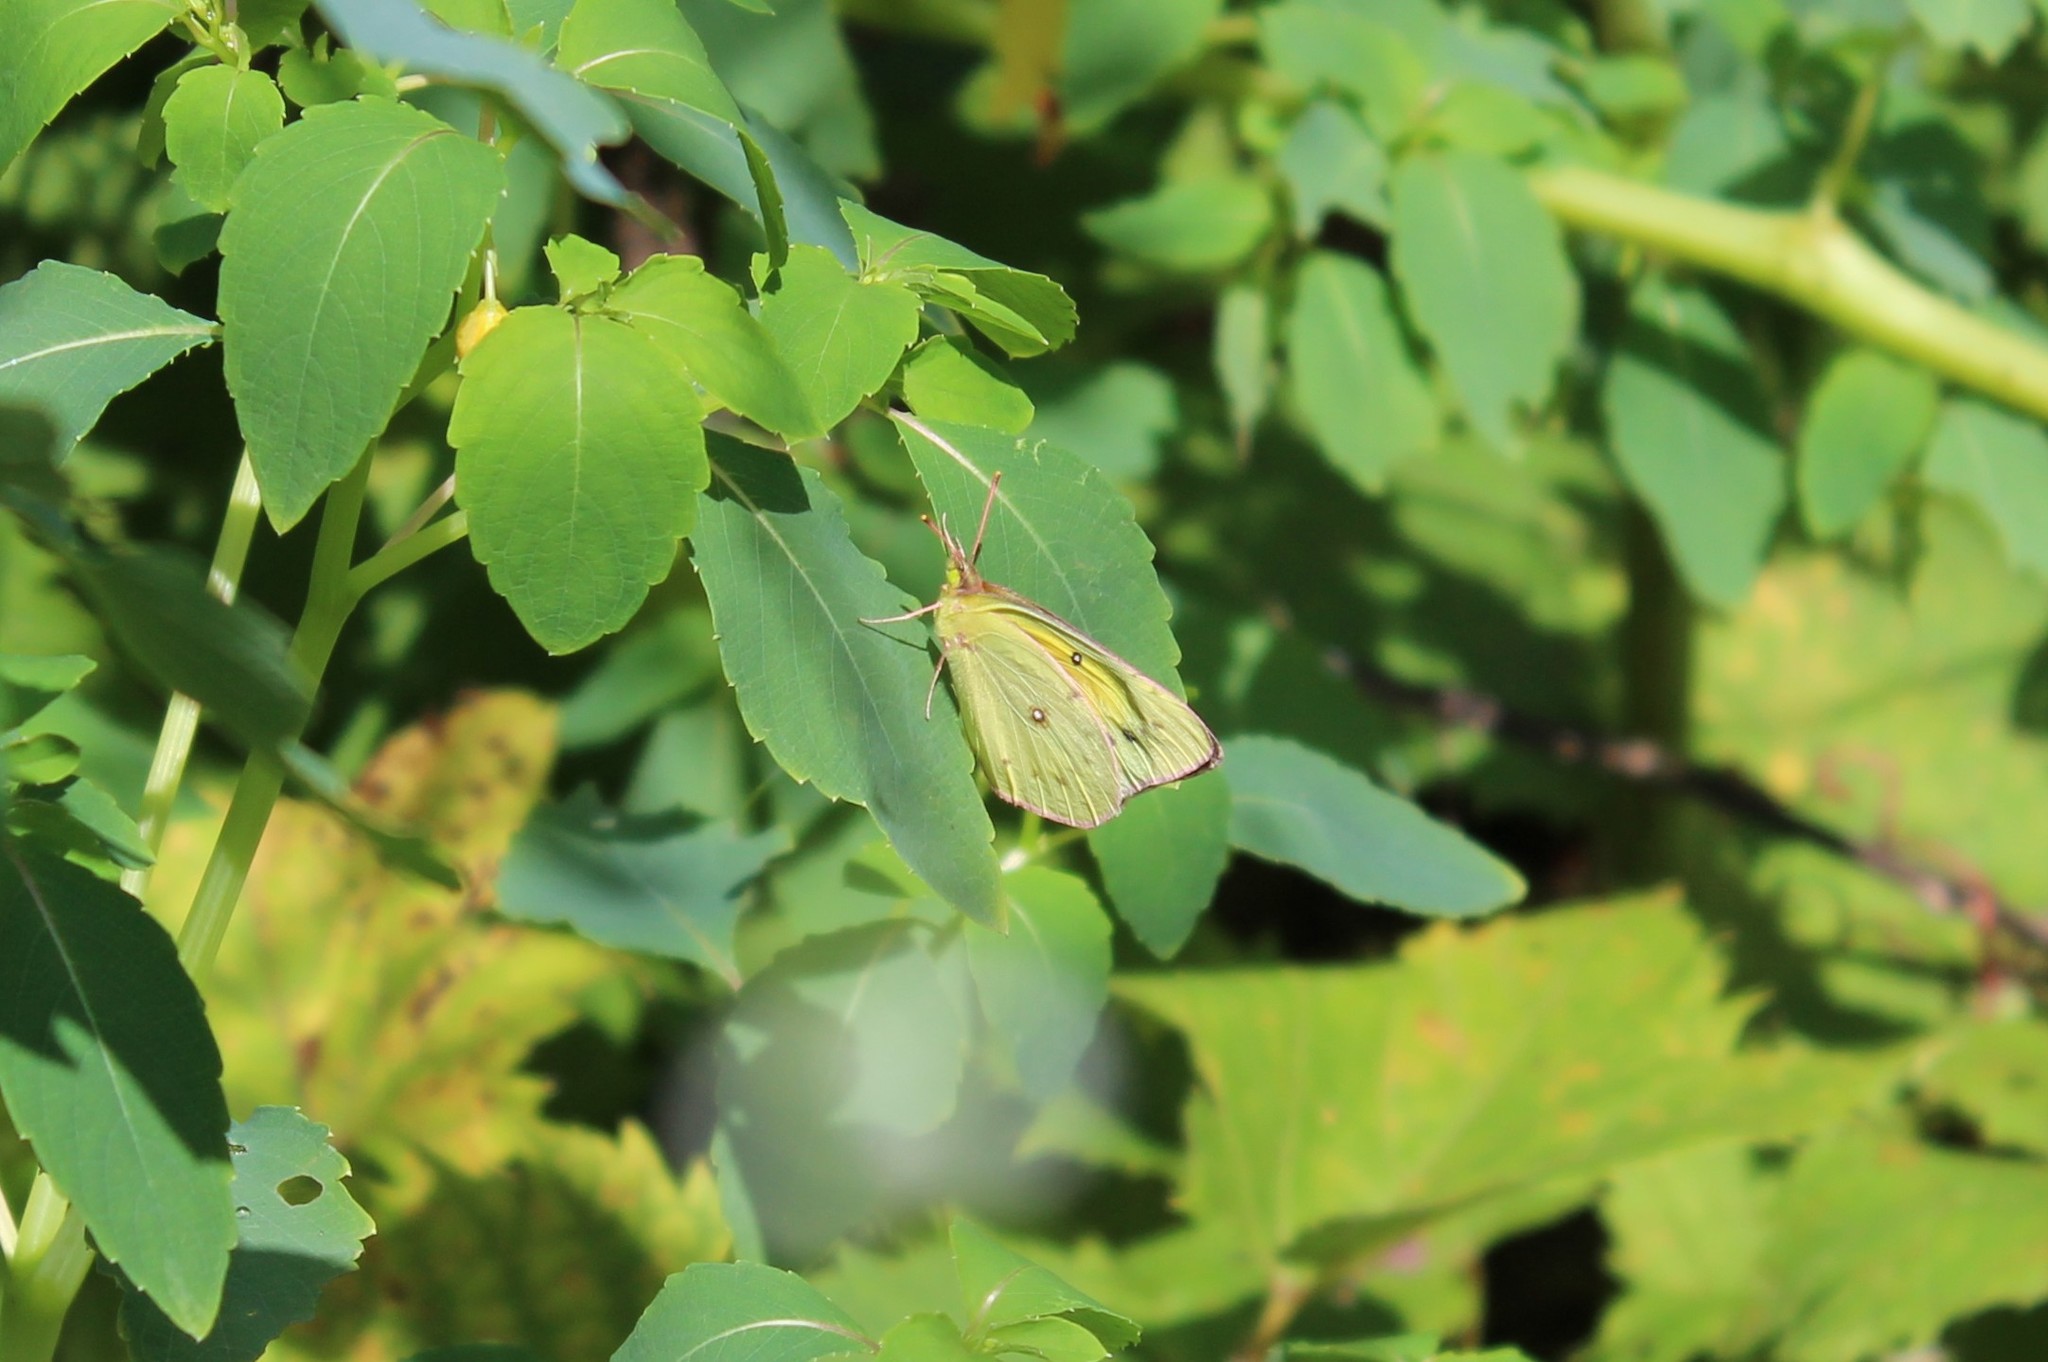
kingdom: Animalia
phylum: Arthropoda
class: Insecta
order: Lepidoptera
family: Pieridae
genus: Colias
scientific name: Colias eurytheme
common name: Alfalfa butterfly
